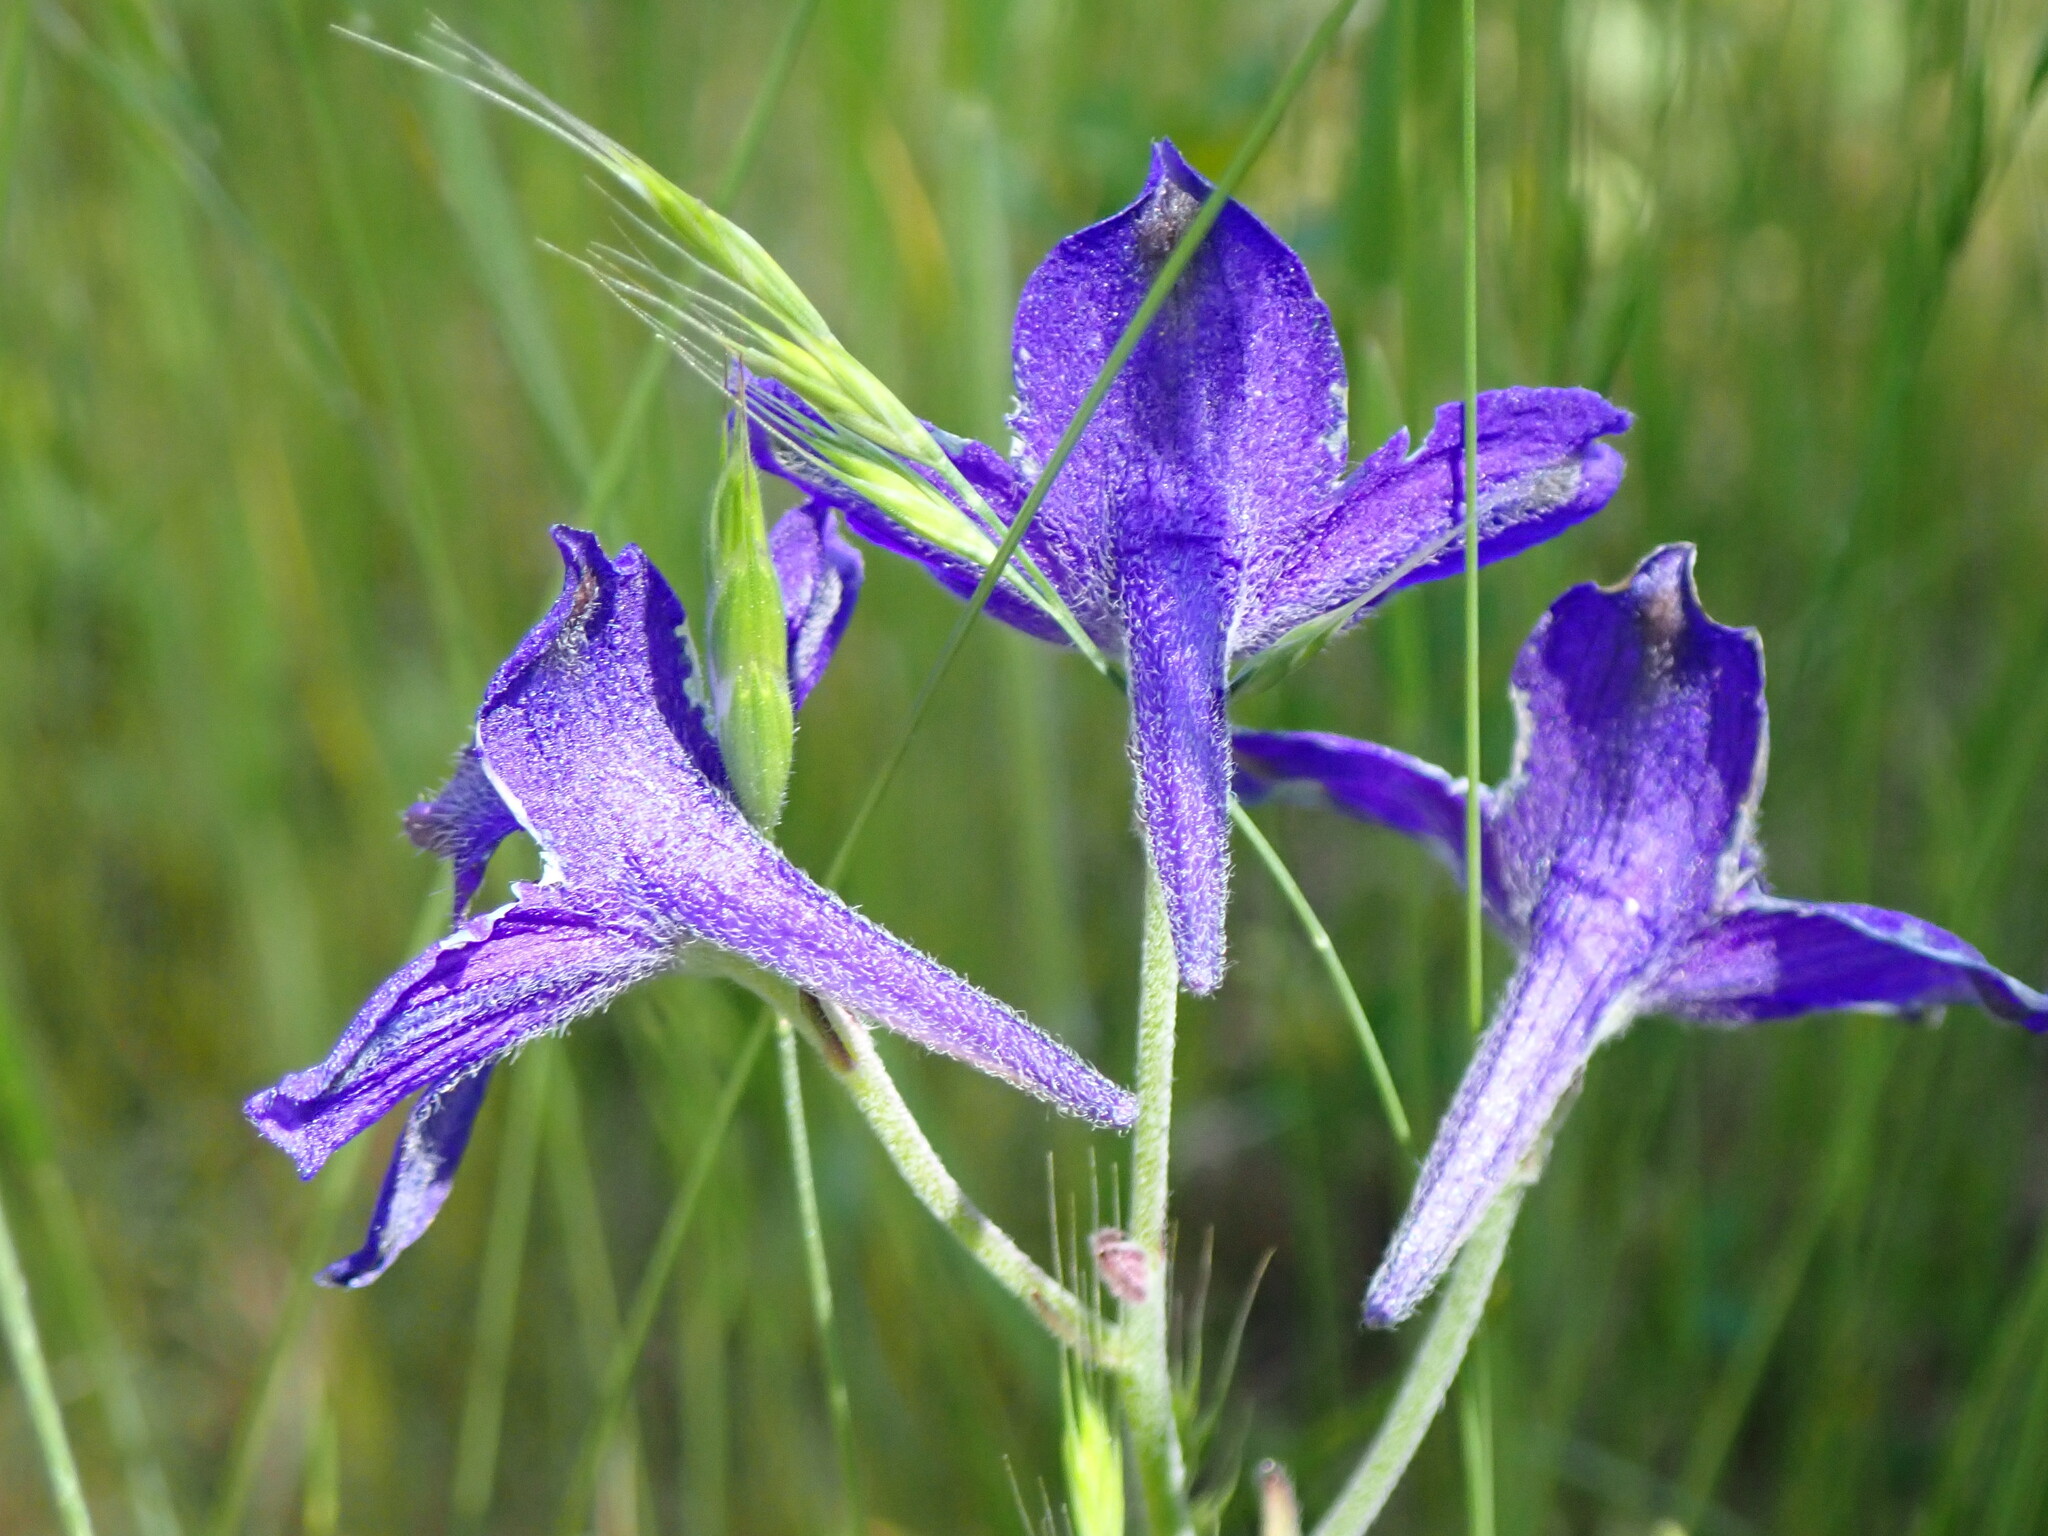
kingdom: Plantae
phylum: Tracheophyta
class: Magnoliopsida
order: Ranunculales
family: Ranunculaceae
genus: Delphinium
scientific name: Delphinium menziesii
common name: Menzies's larkspur
